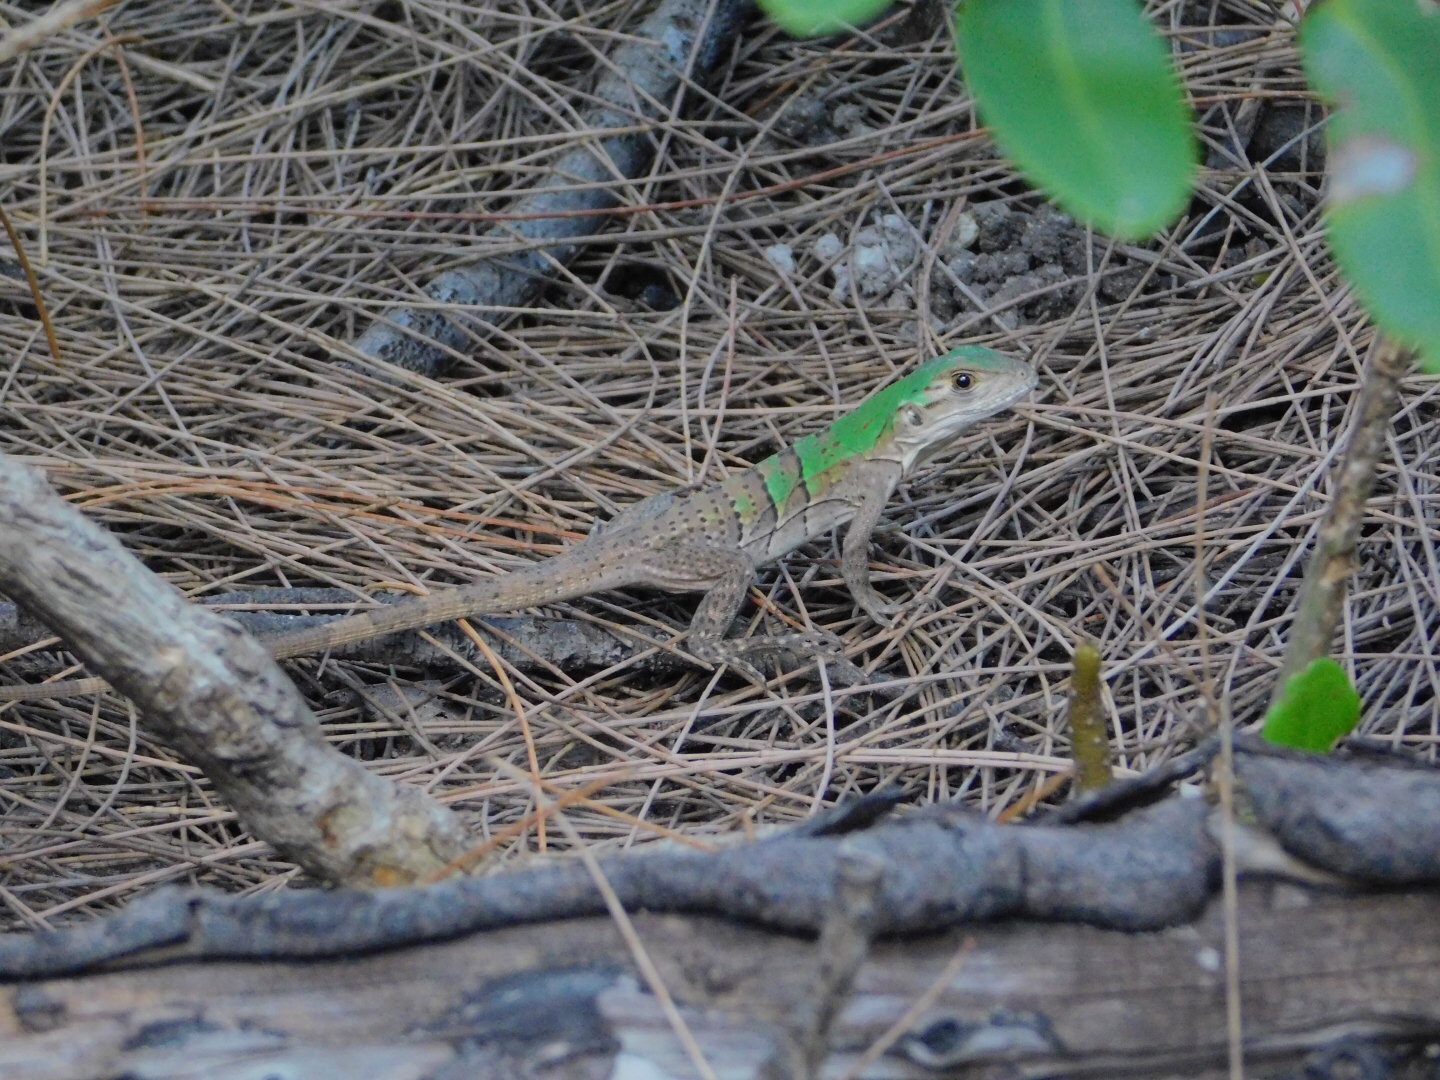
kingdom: Animalia
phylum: Chordata
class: Squamata
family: Iguanidae
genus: Ctenosaura
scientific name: Ctenosaura similis
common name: Black spiny-tailed iguana
